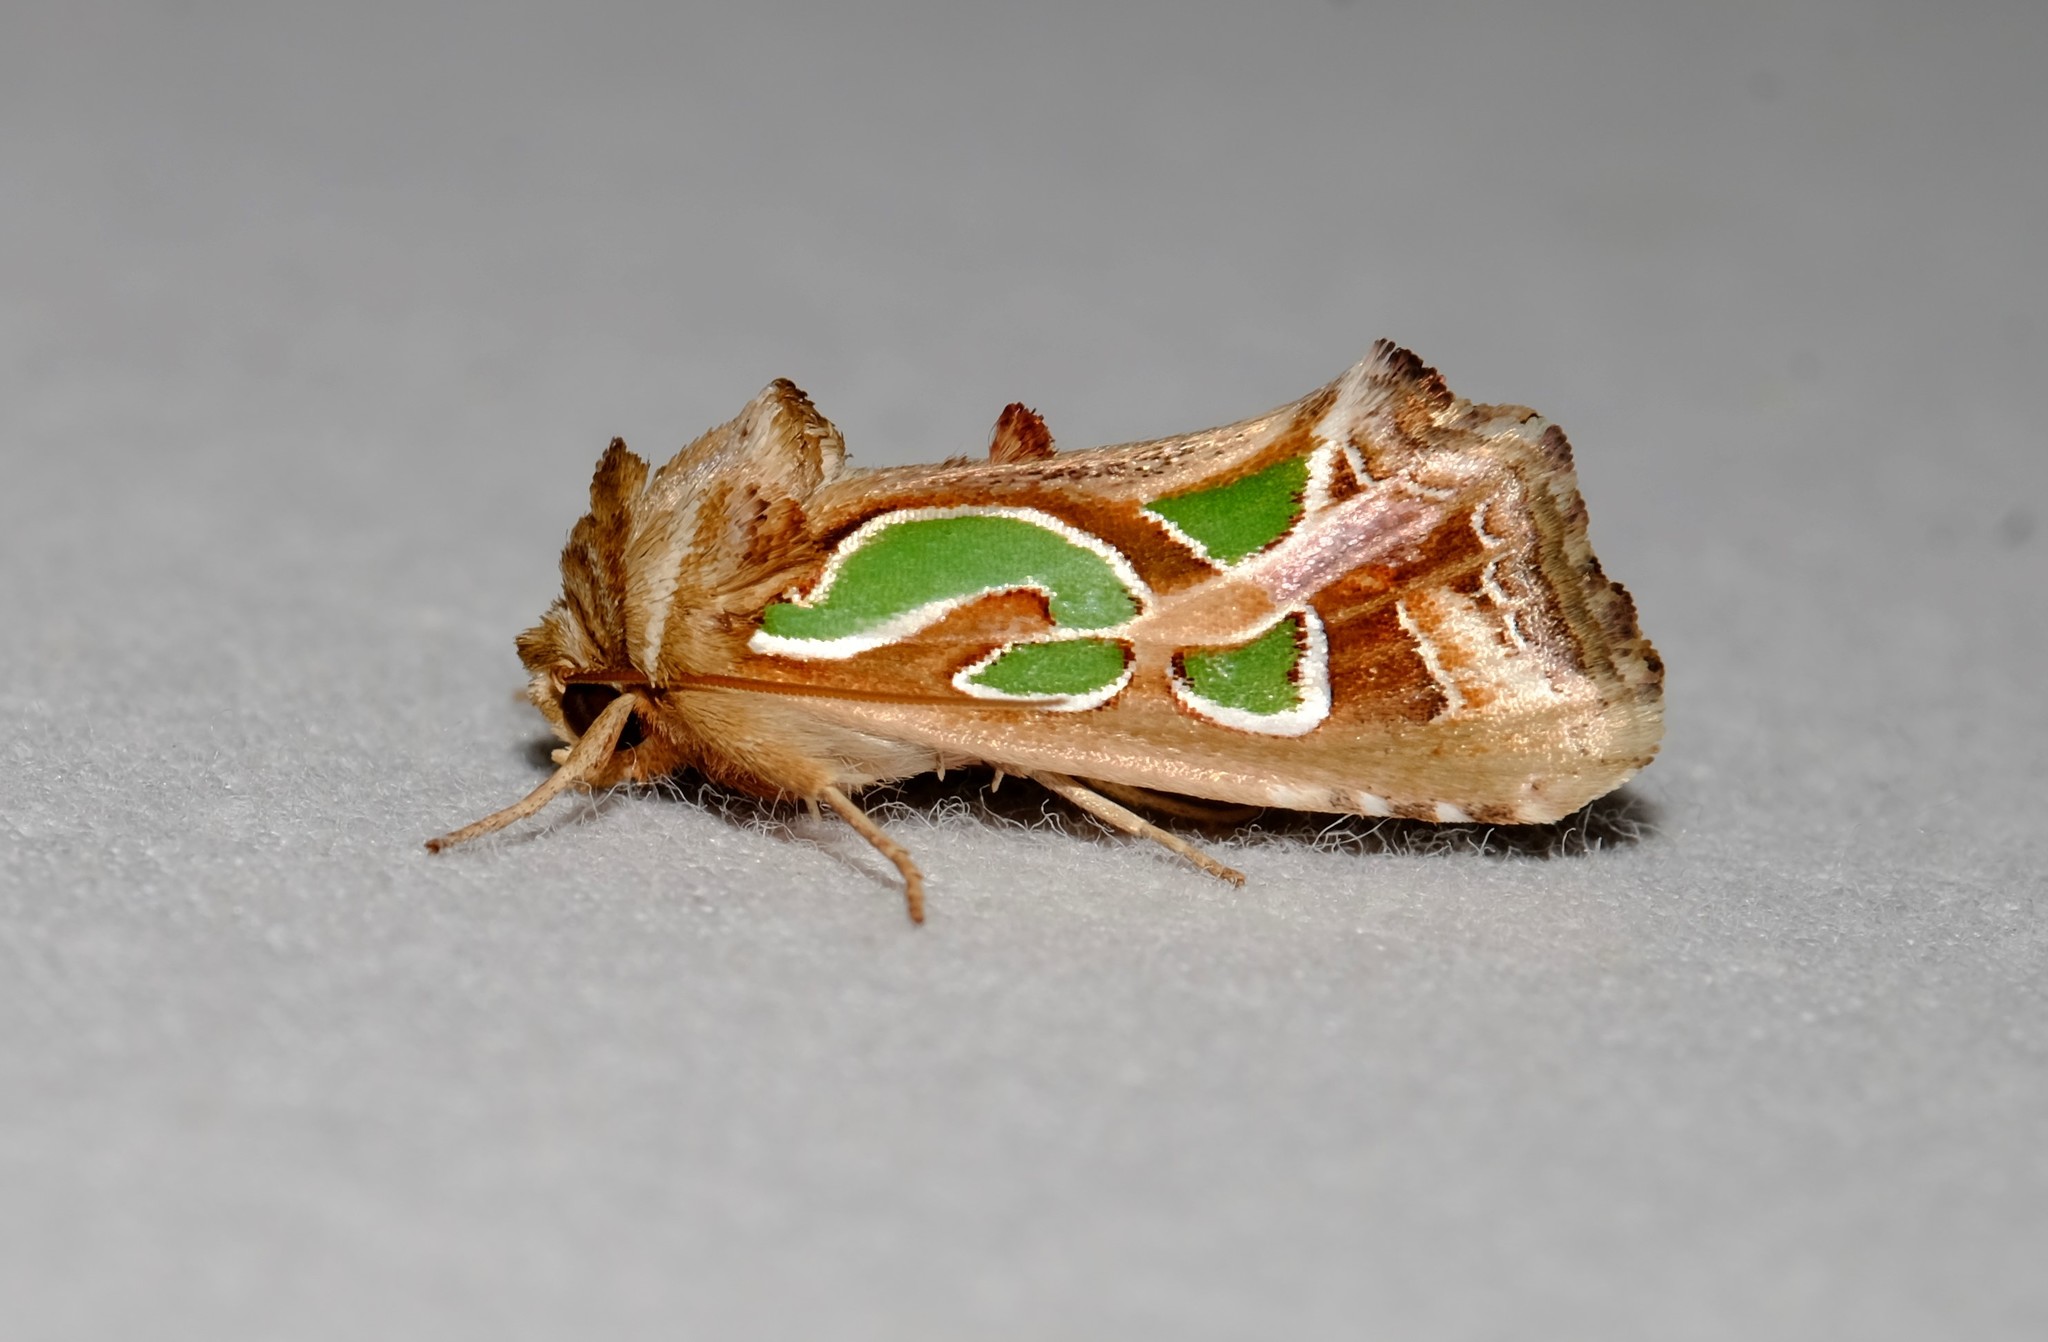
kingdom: Animalia
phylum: Arthropoda
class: Insecta
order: Lepidoptera
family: Noctuidae
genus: Cosmodes
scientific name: Cosmodes elegans
